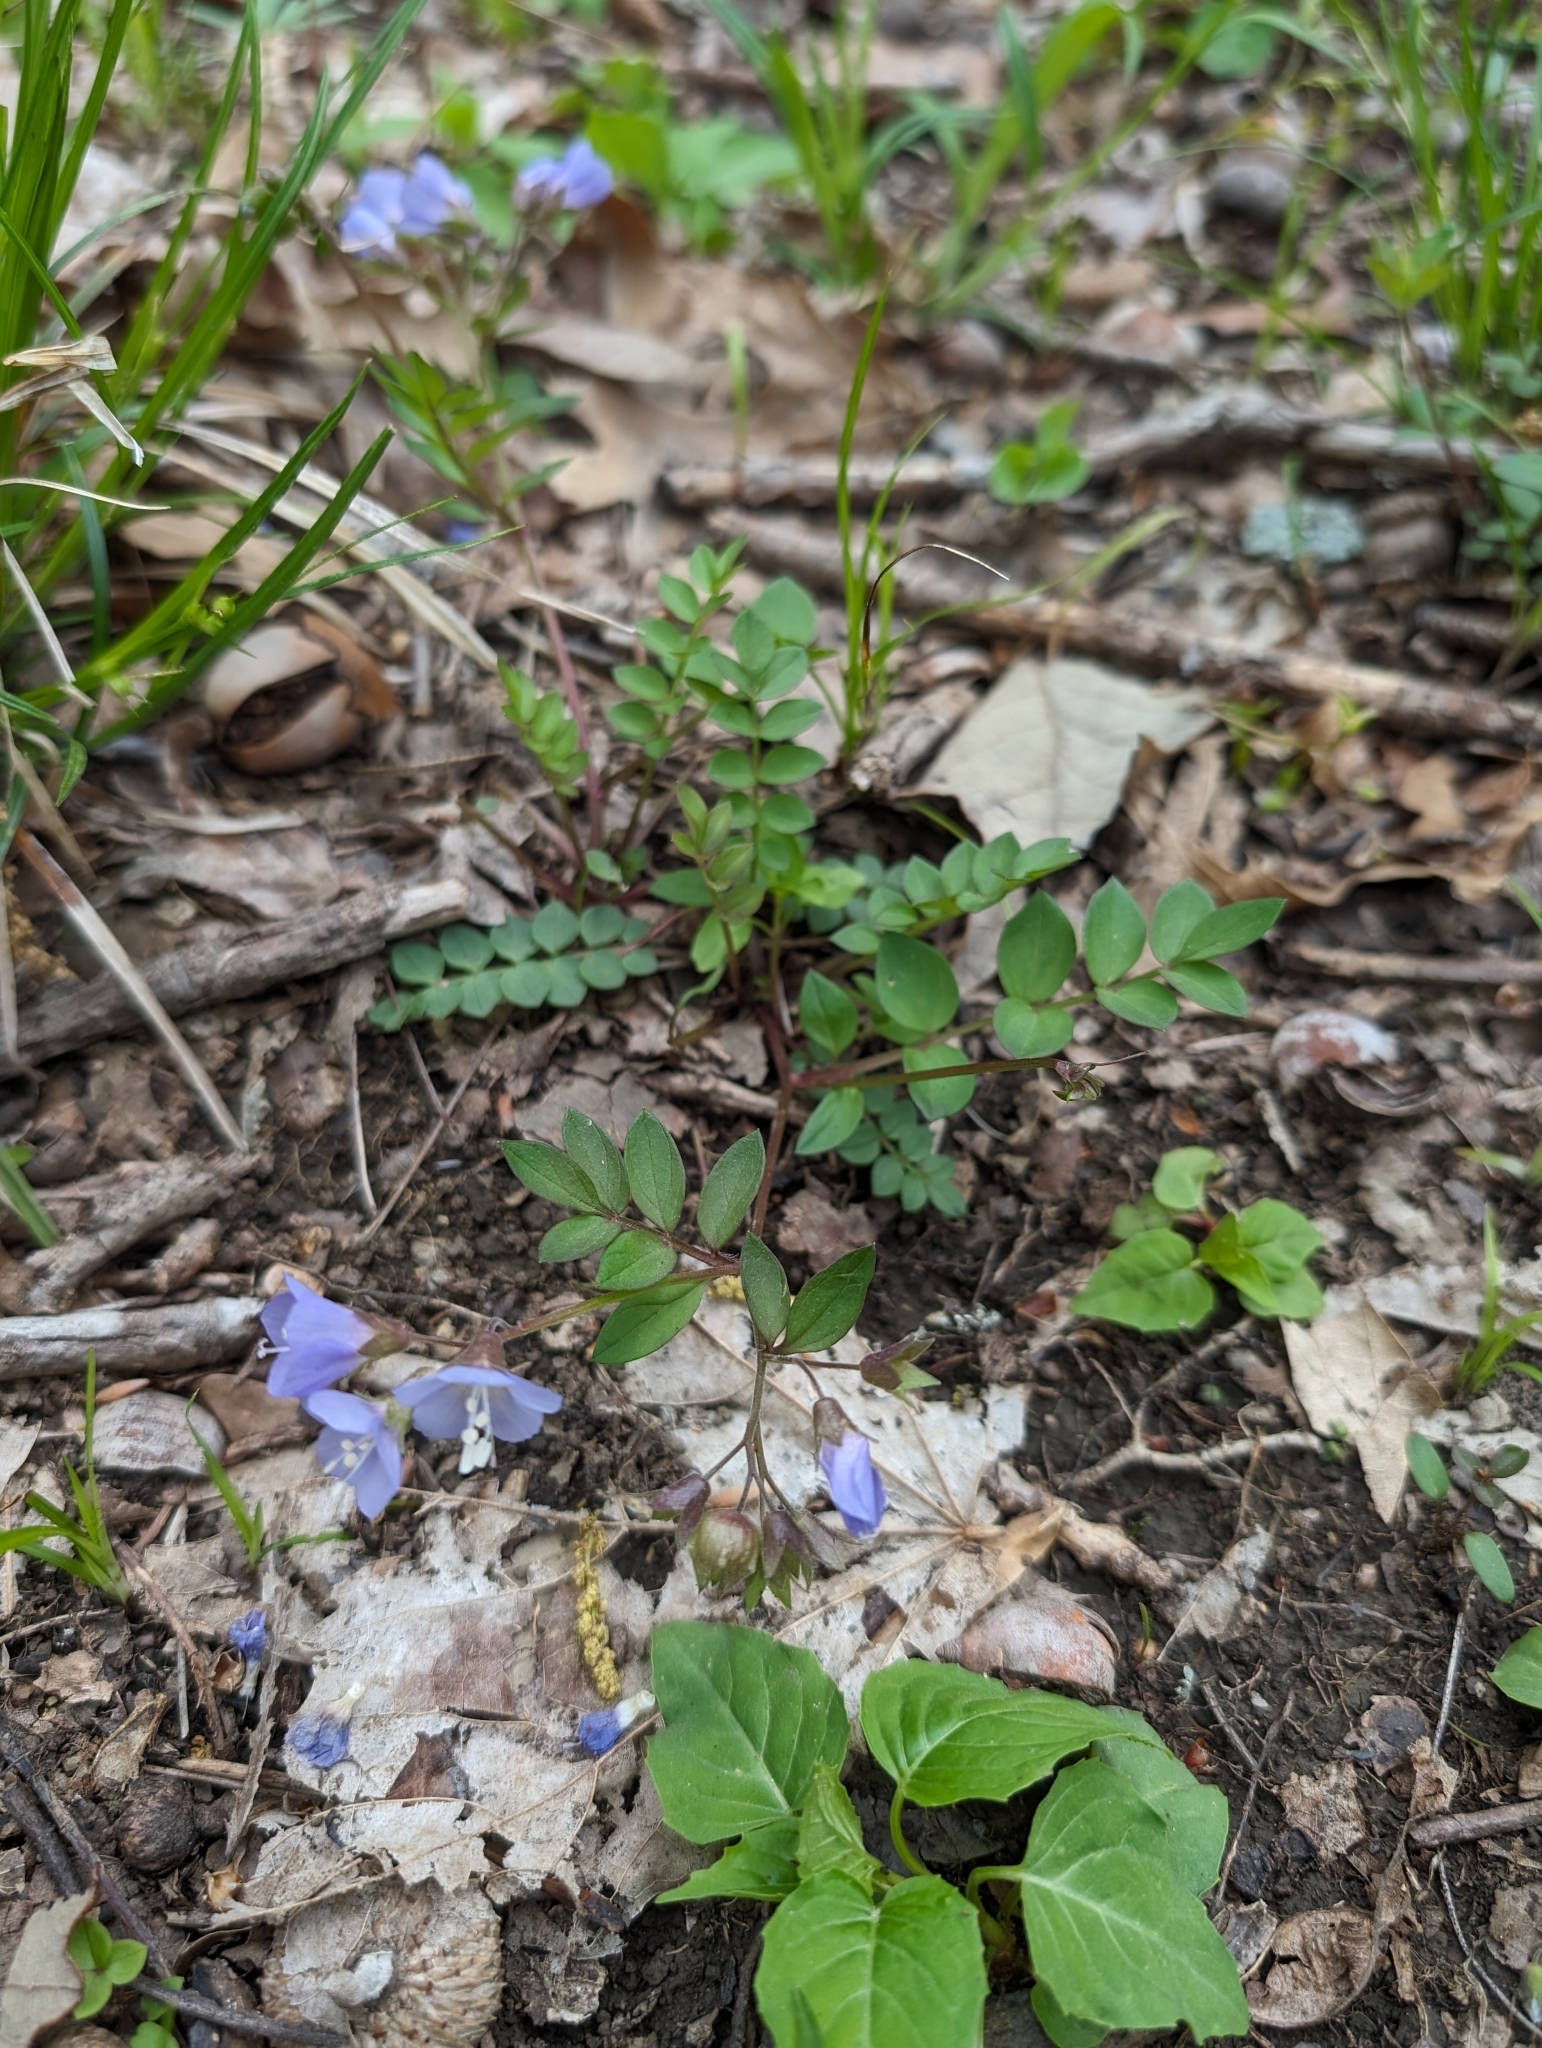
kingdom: Plantae
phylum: Tracheophyta
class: Magnoliopsida
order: Ericales
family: Polemoniaceae
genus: Polemonium
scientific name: Polemonium reptans
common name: Creeping jacob's-ladder
